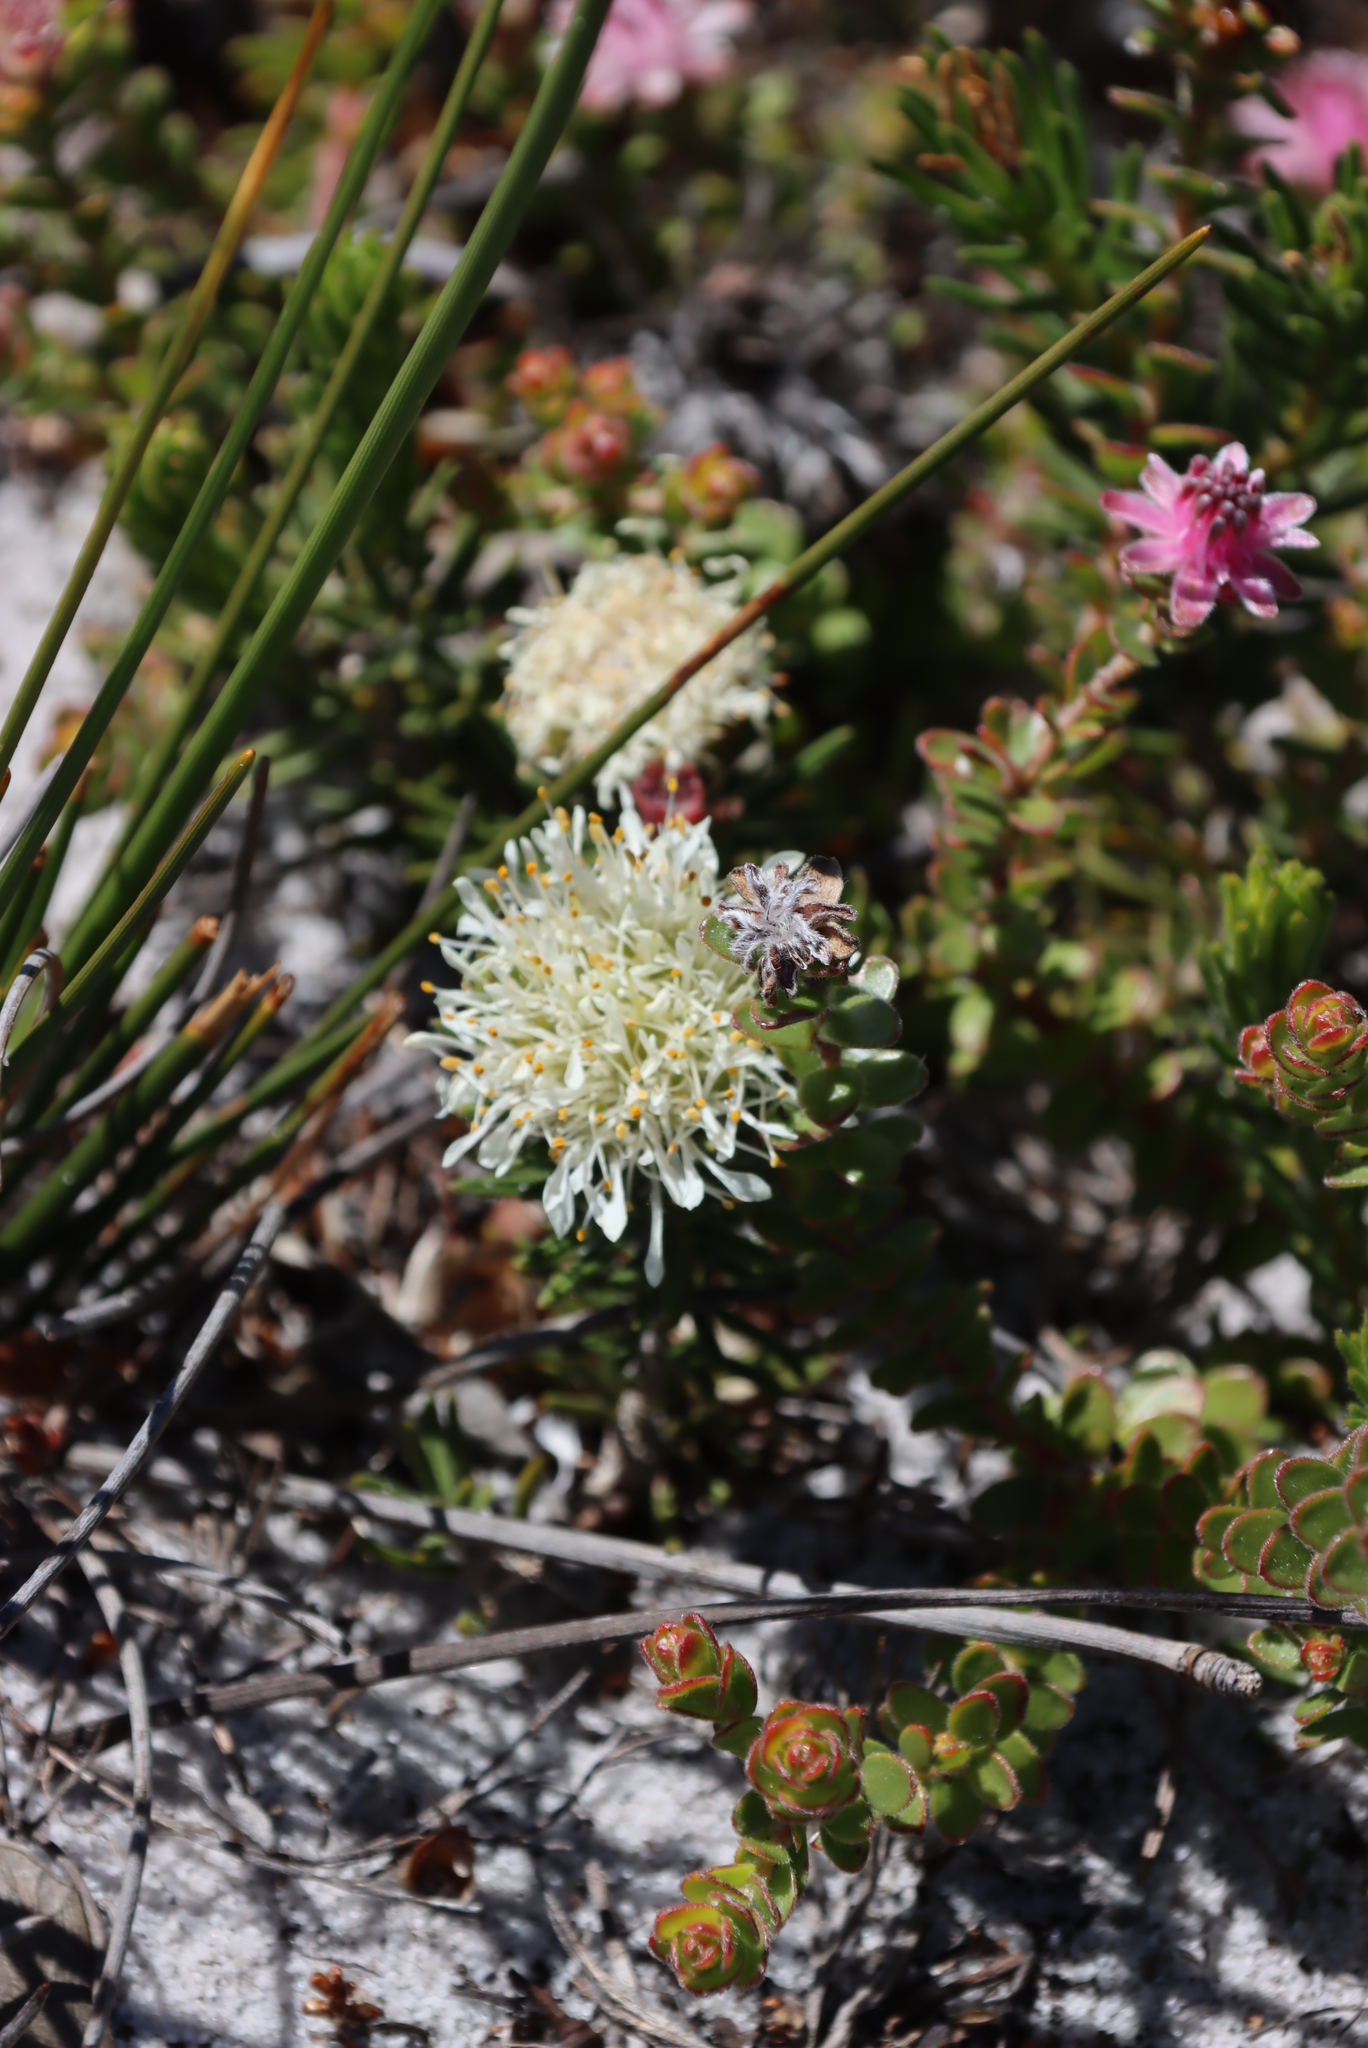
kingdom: Plantae
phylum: Tracheophyta
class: Magnoliopsida
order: Proteales
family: Proteaceae
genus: Diastella
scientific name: Diastella divaricata
